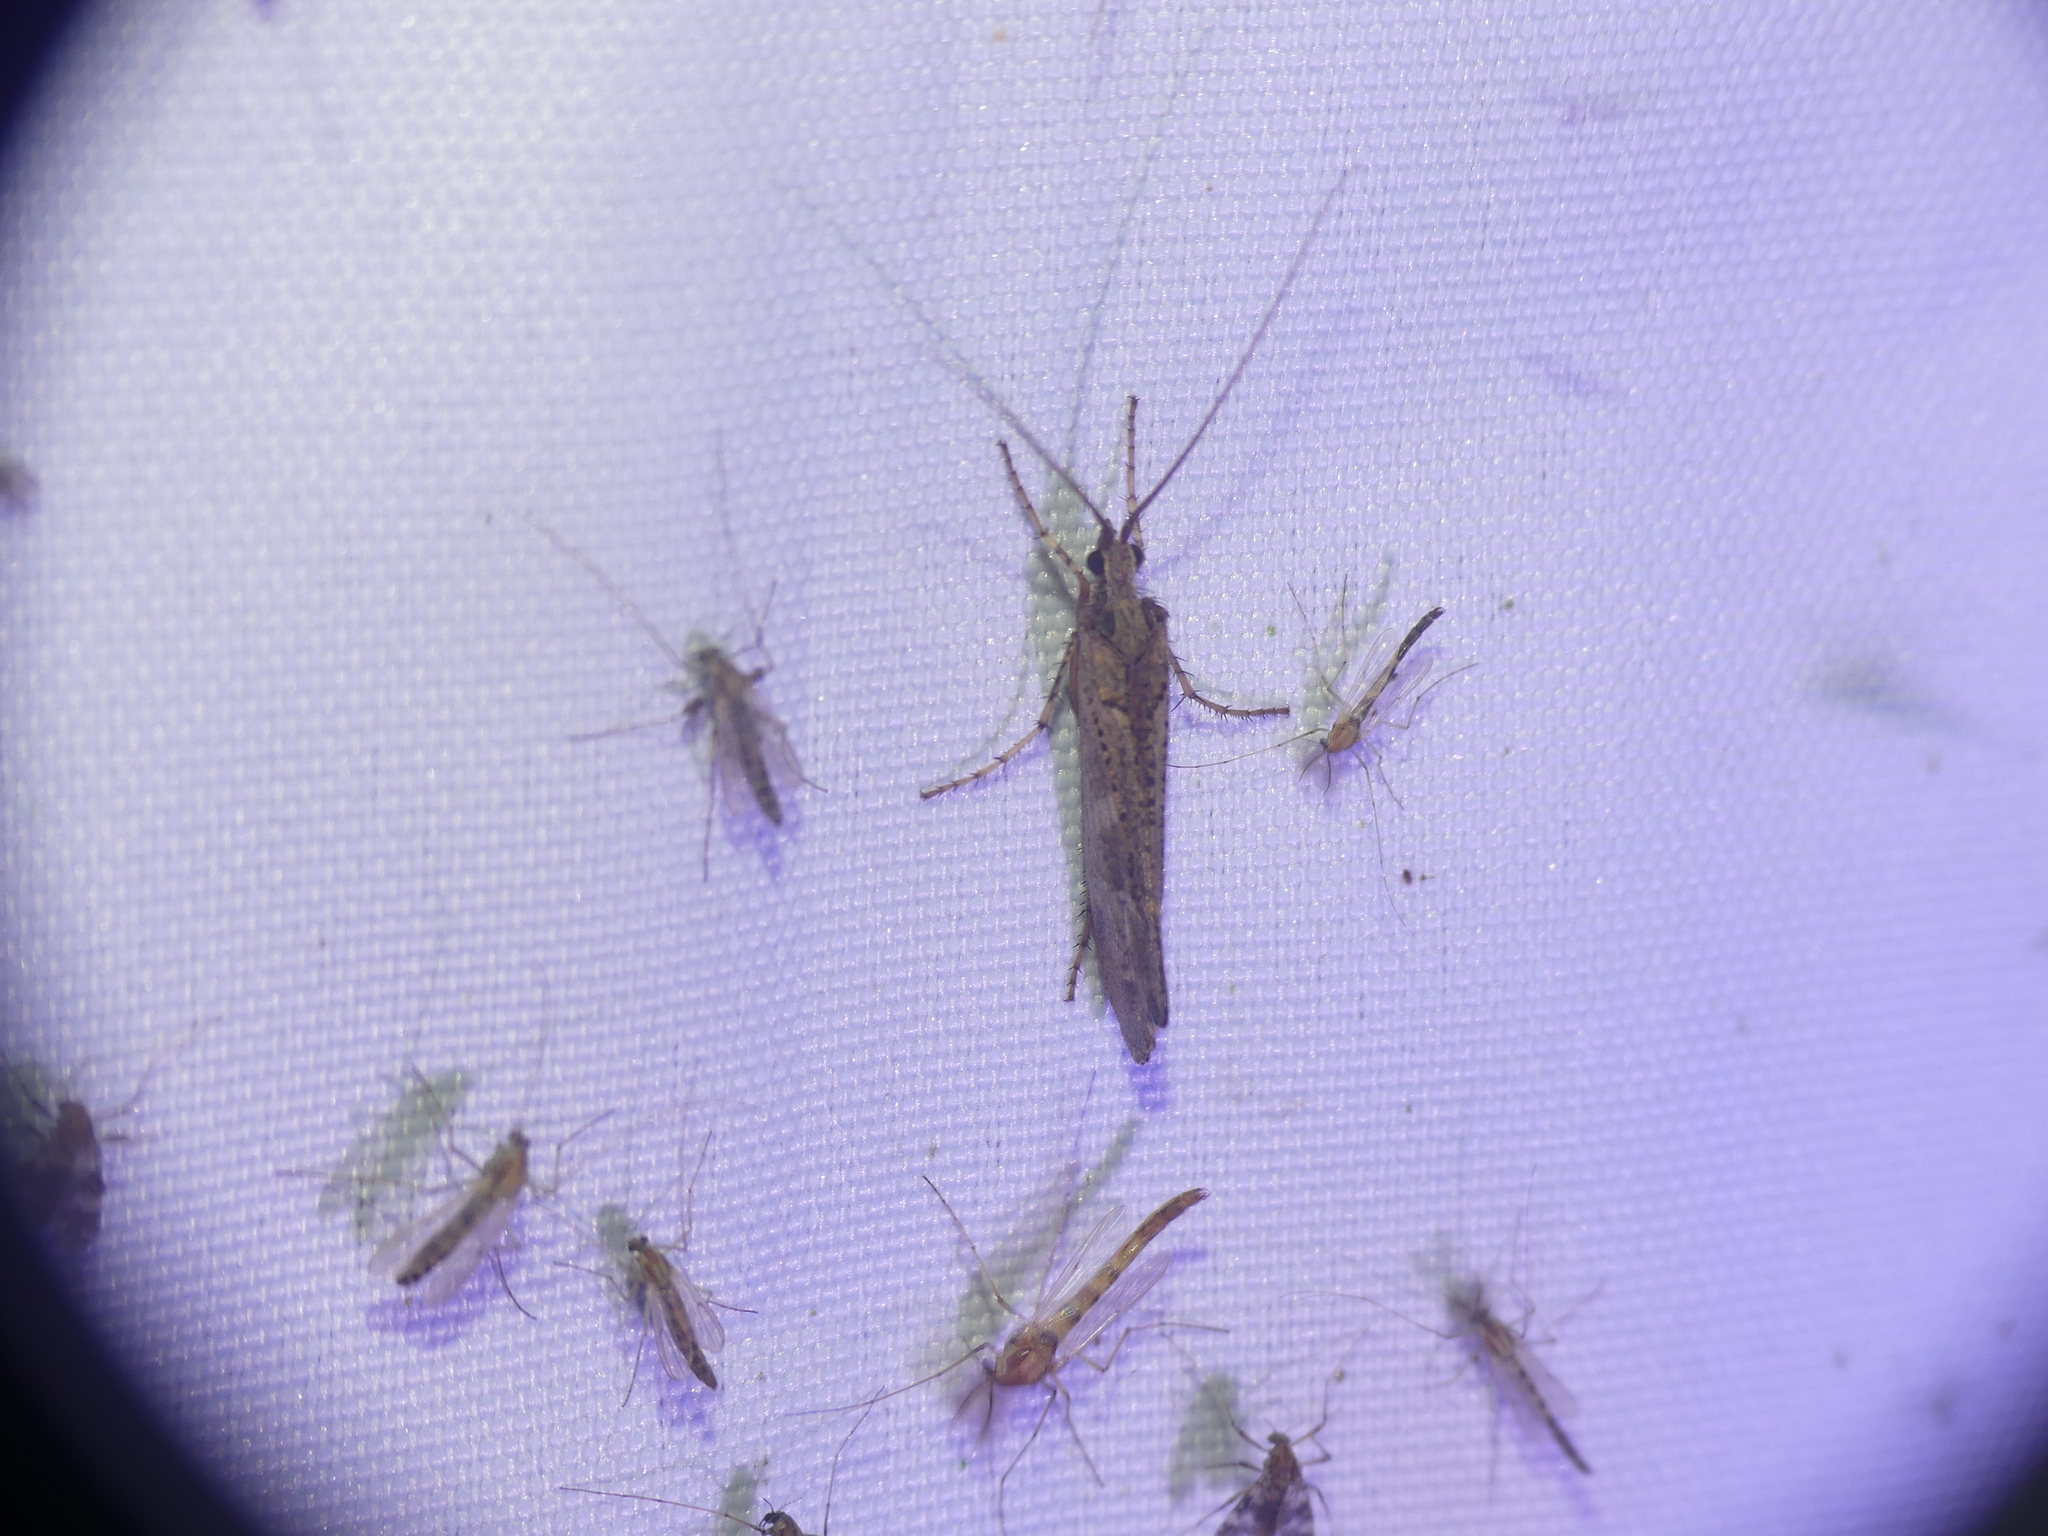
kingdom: Animalia
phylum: Arthropoda
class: Insecta
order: Trichoptera
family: Limnephilidae
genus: Glyphotaelius
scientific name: Glyphotaelius pellucidus
